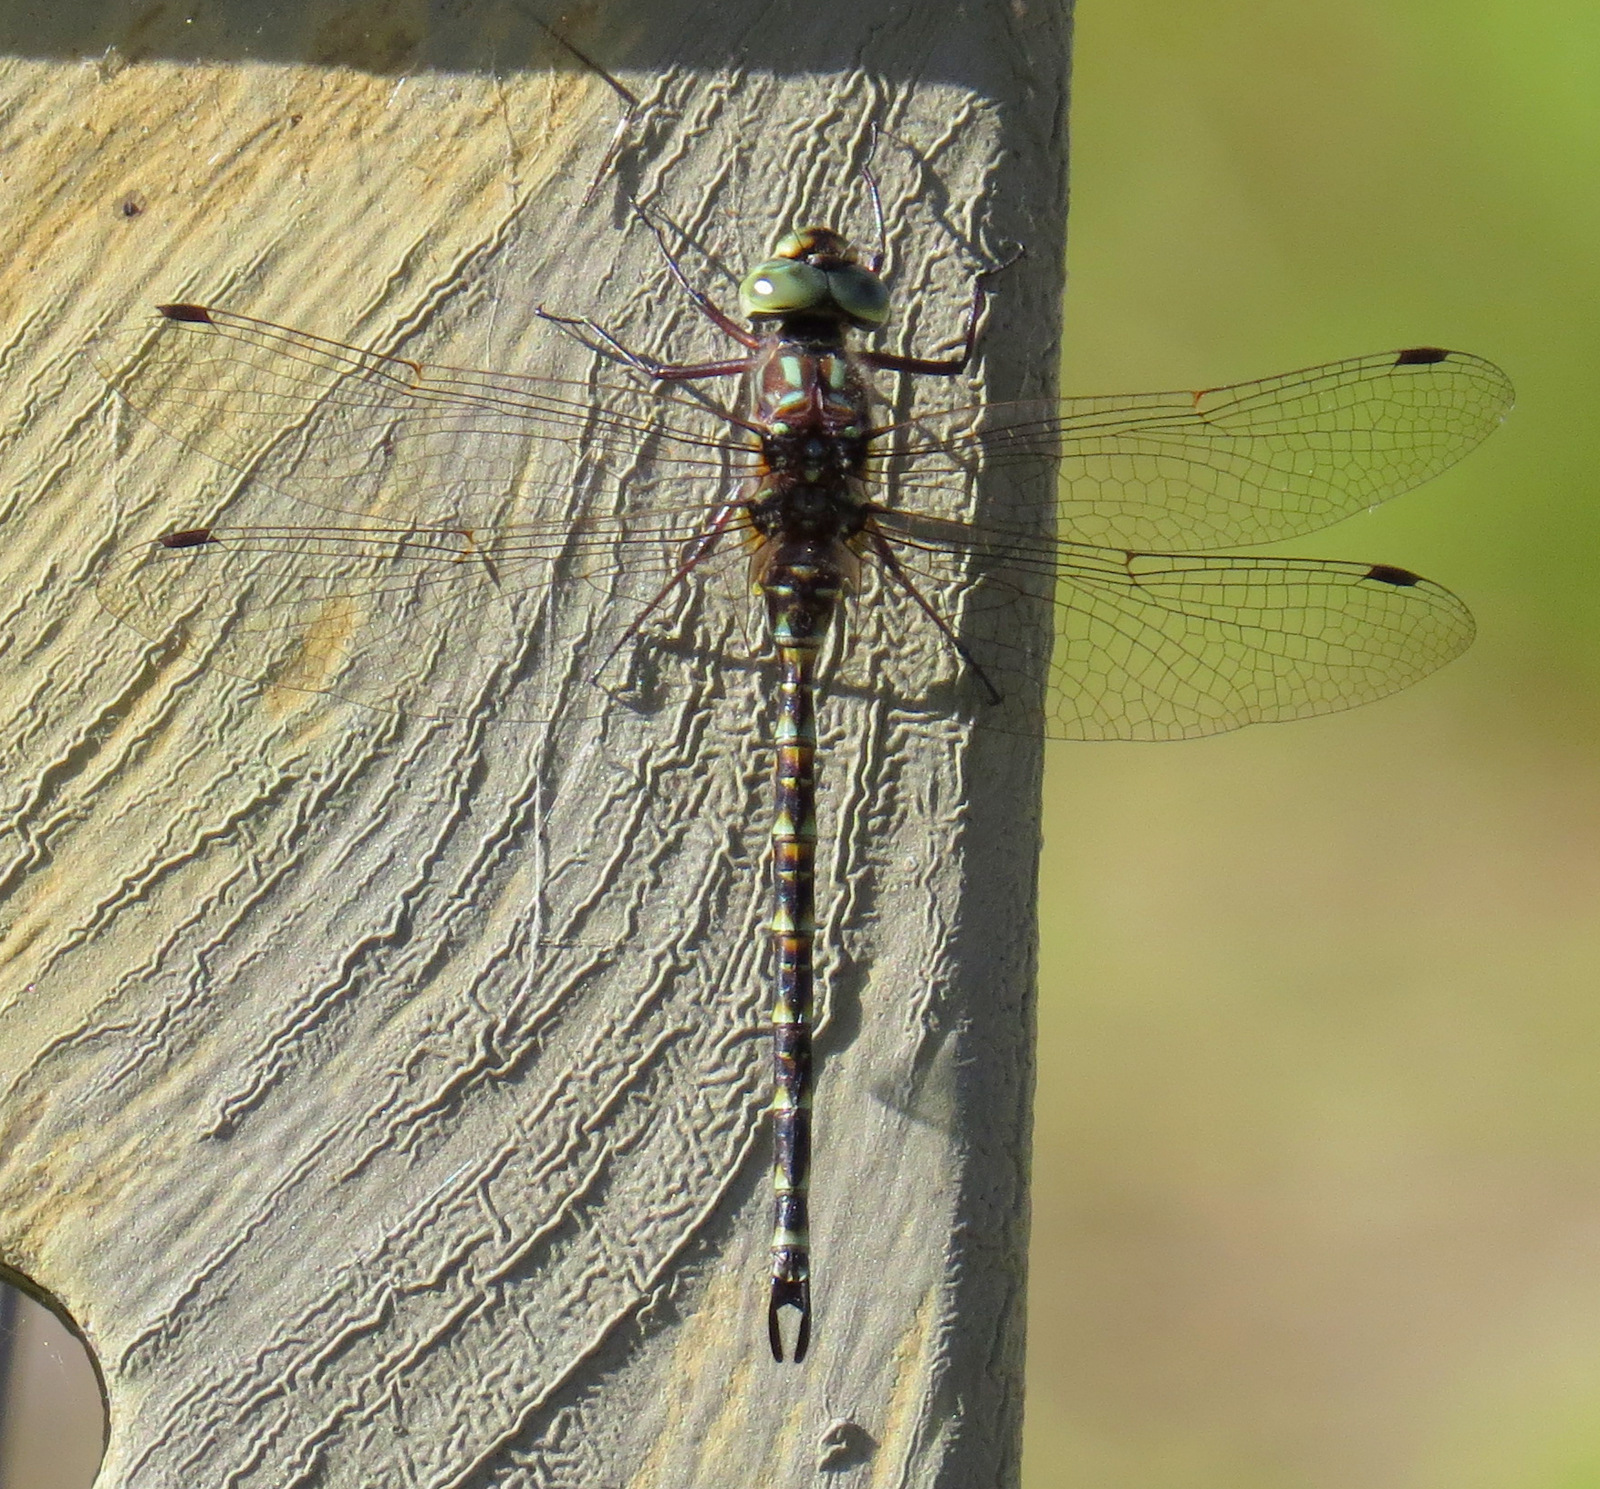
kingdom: Animalia
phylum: Arthropoda
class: Insecta
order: Odonata
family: Aeshnidae
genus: Gomphaeschna
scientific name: Gomphaeschna furcillata
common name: Harlequin darner
